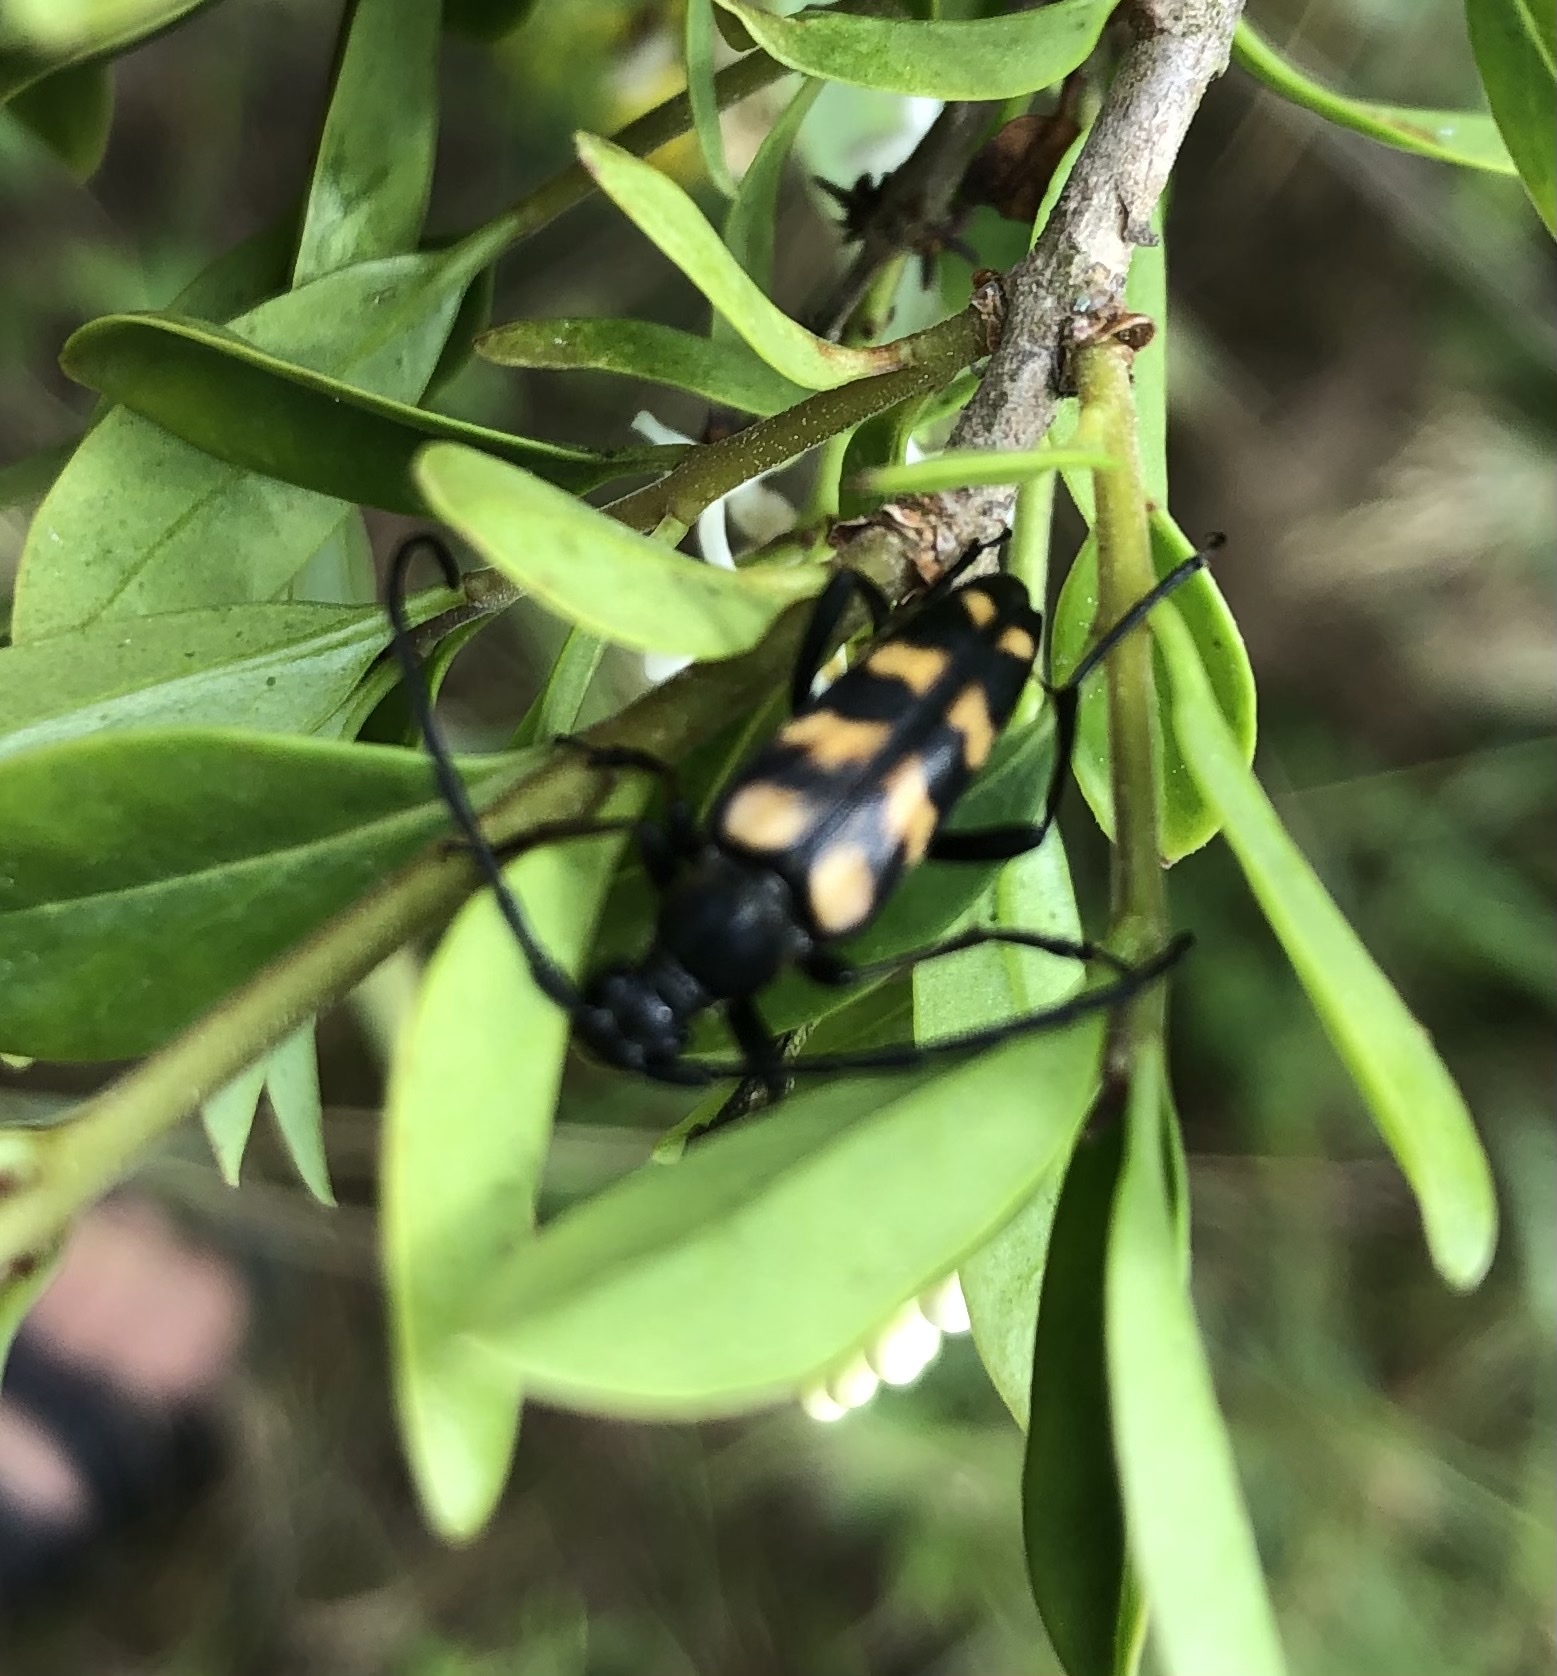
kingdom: Animalia
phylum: Arthropoda
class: Insecta
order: Coleoptera
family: Cerambycidae
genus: Leptura
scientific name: Leptura quadrifasciata
